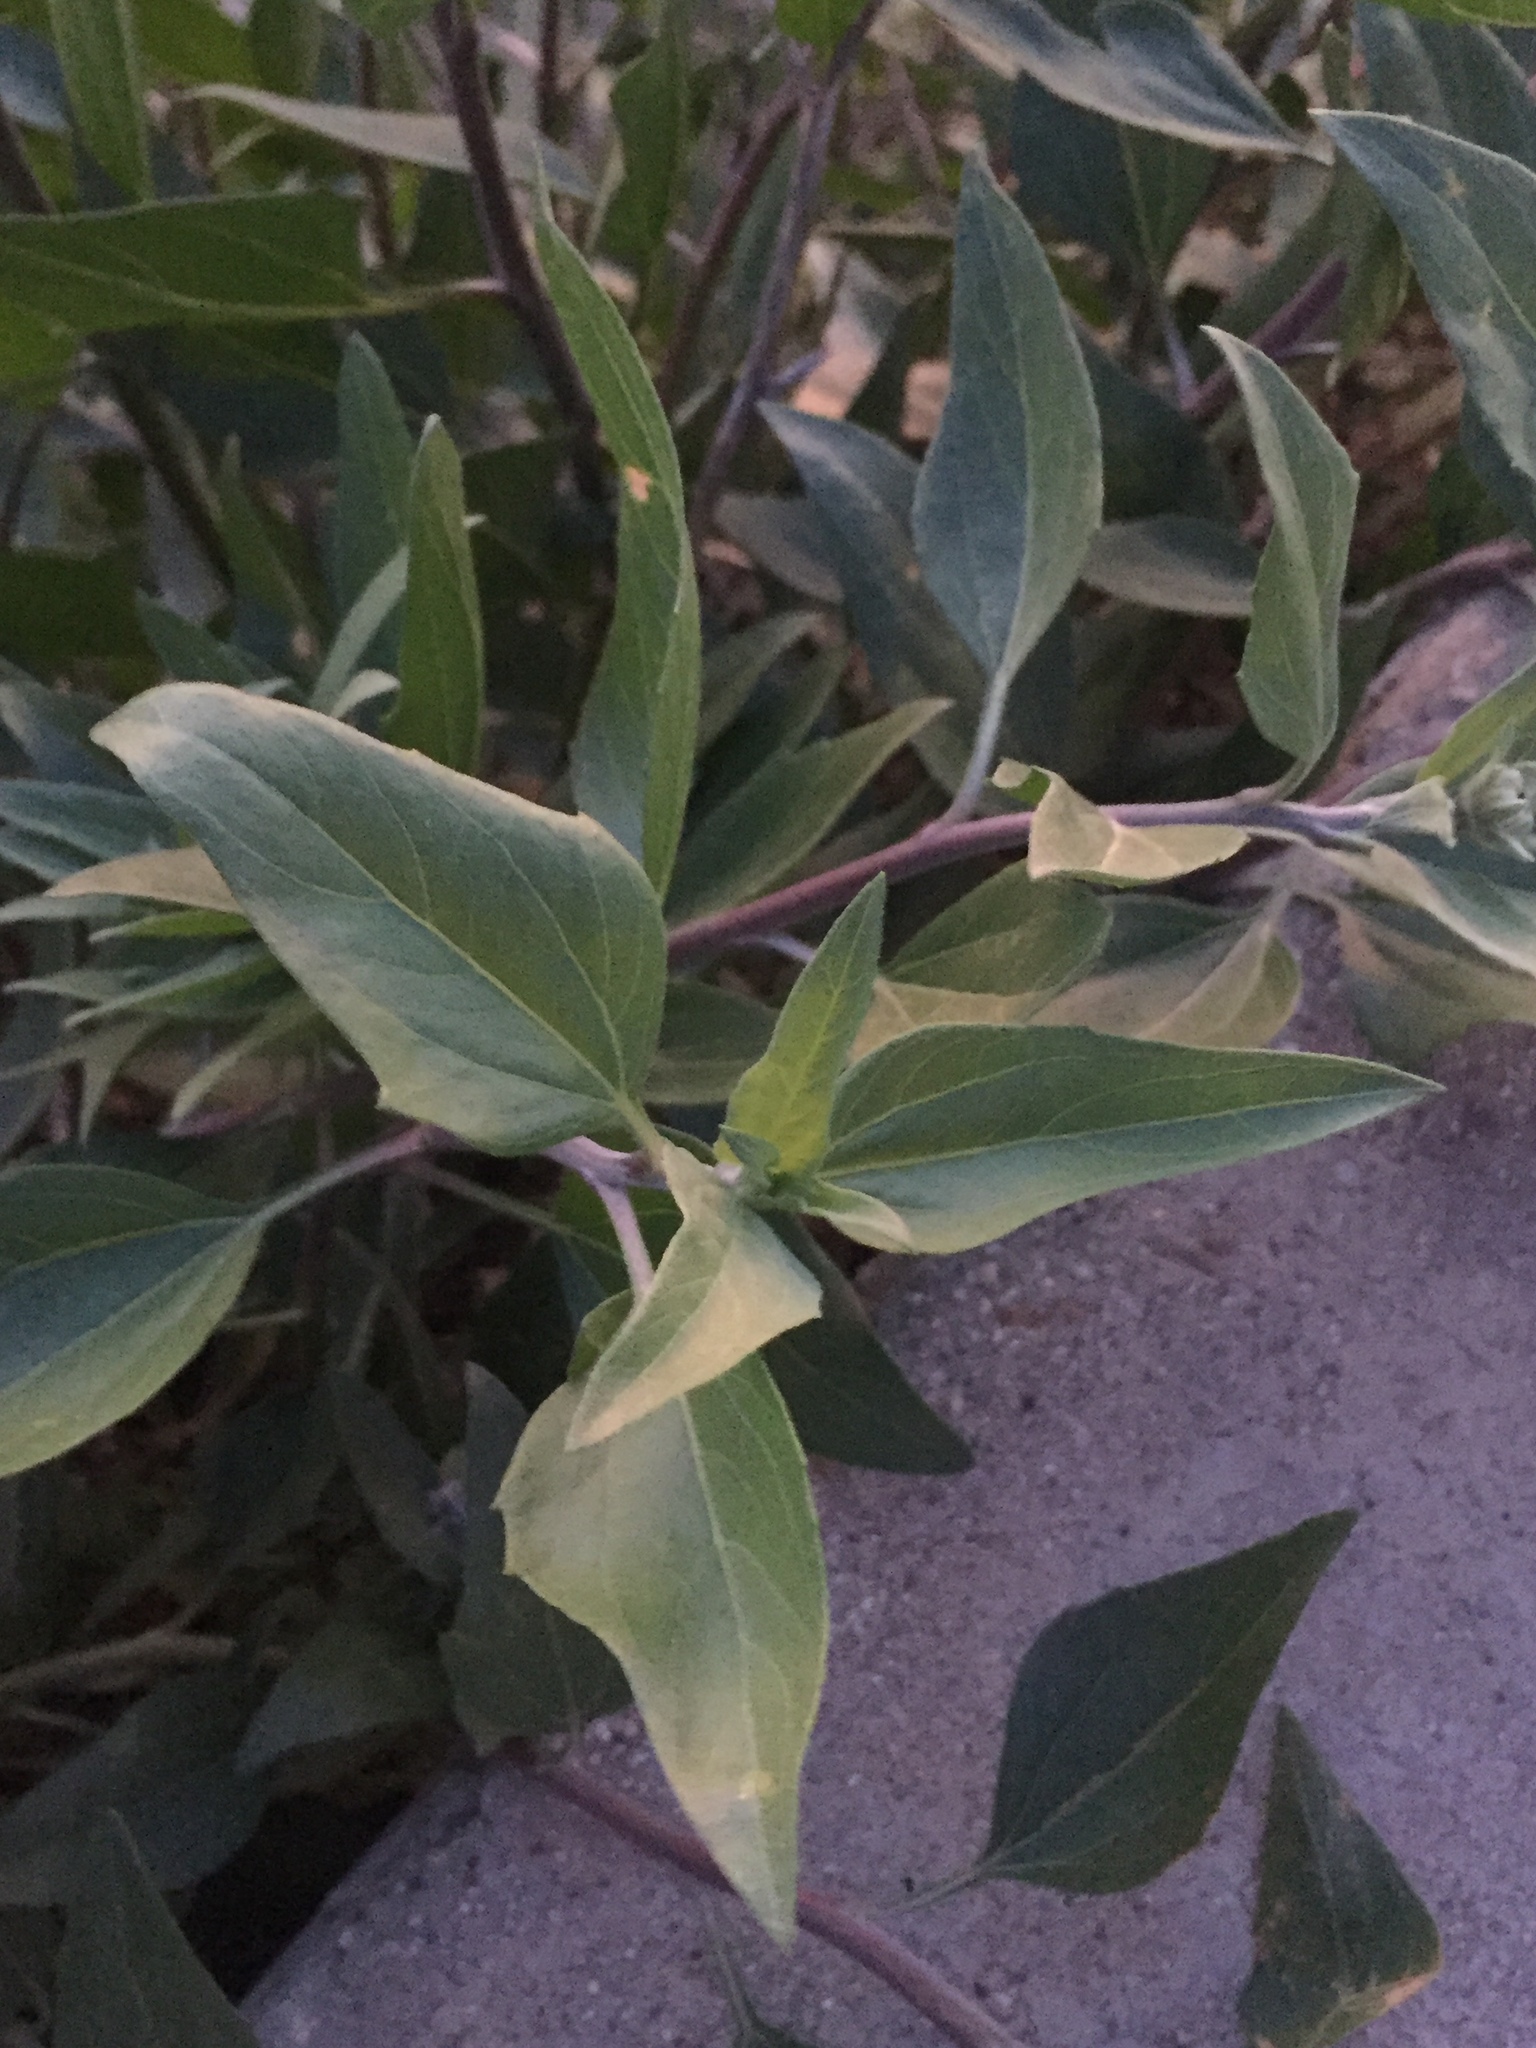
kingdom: Plantae
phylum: Tracheophyta
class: Magnoliopsida
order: Asterales
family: Asteraceae
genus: Encelia
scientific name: Encelia californica
